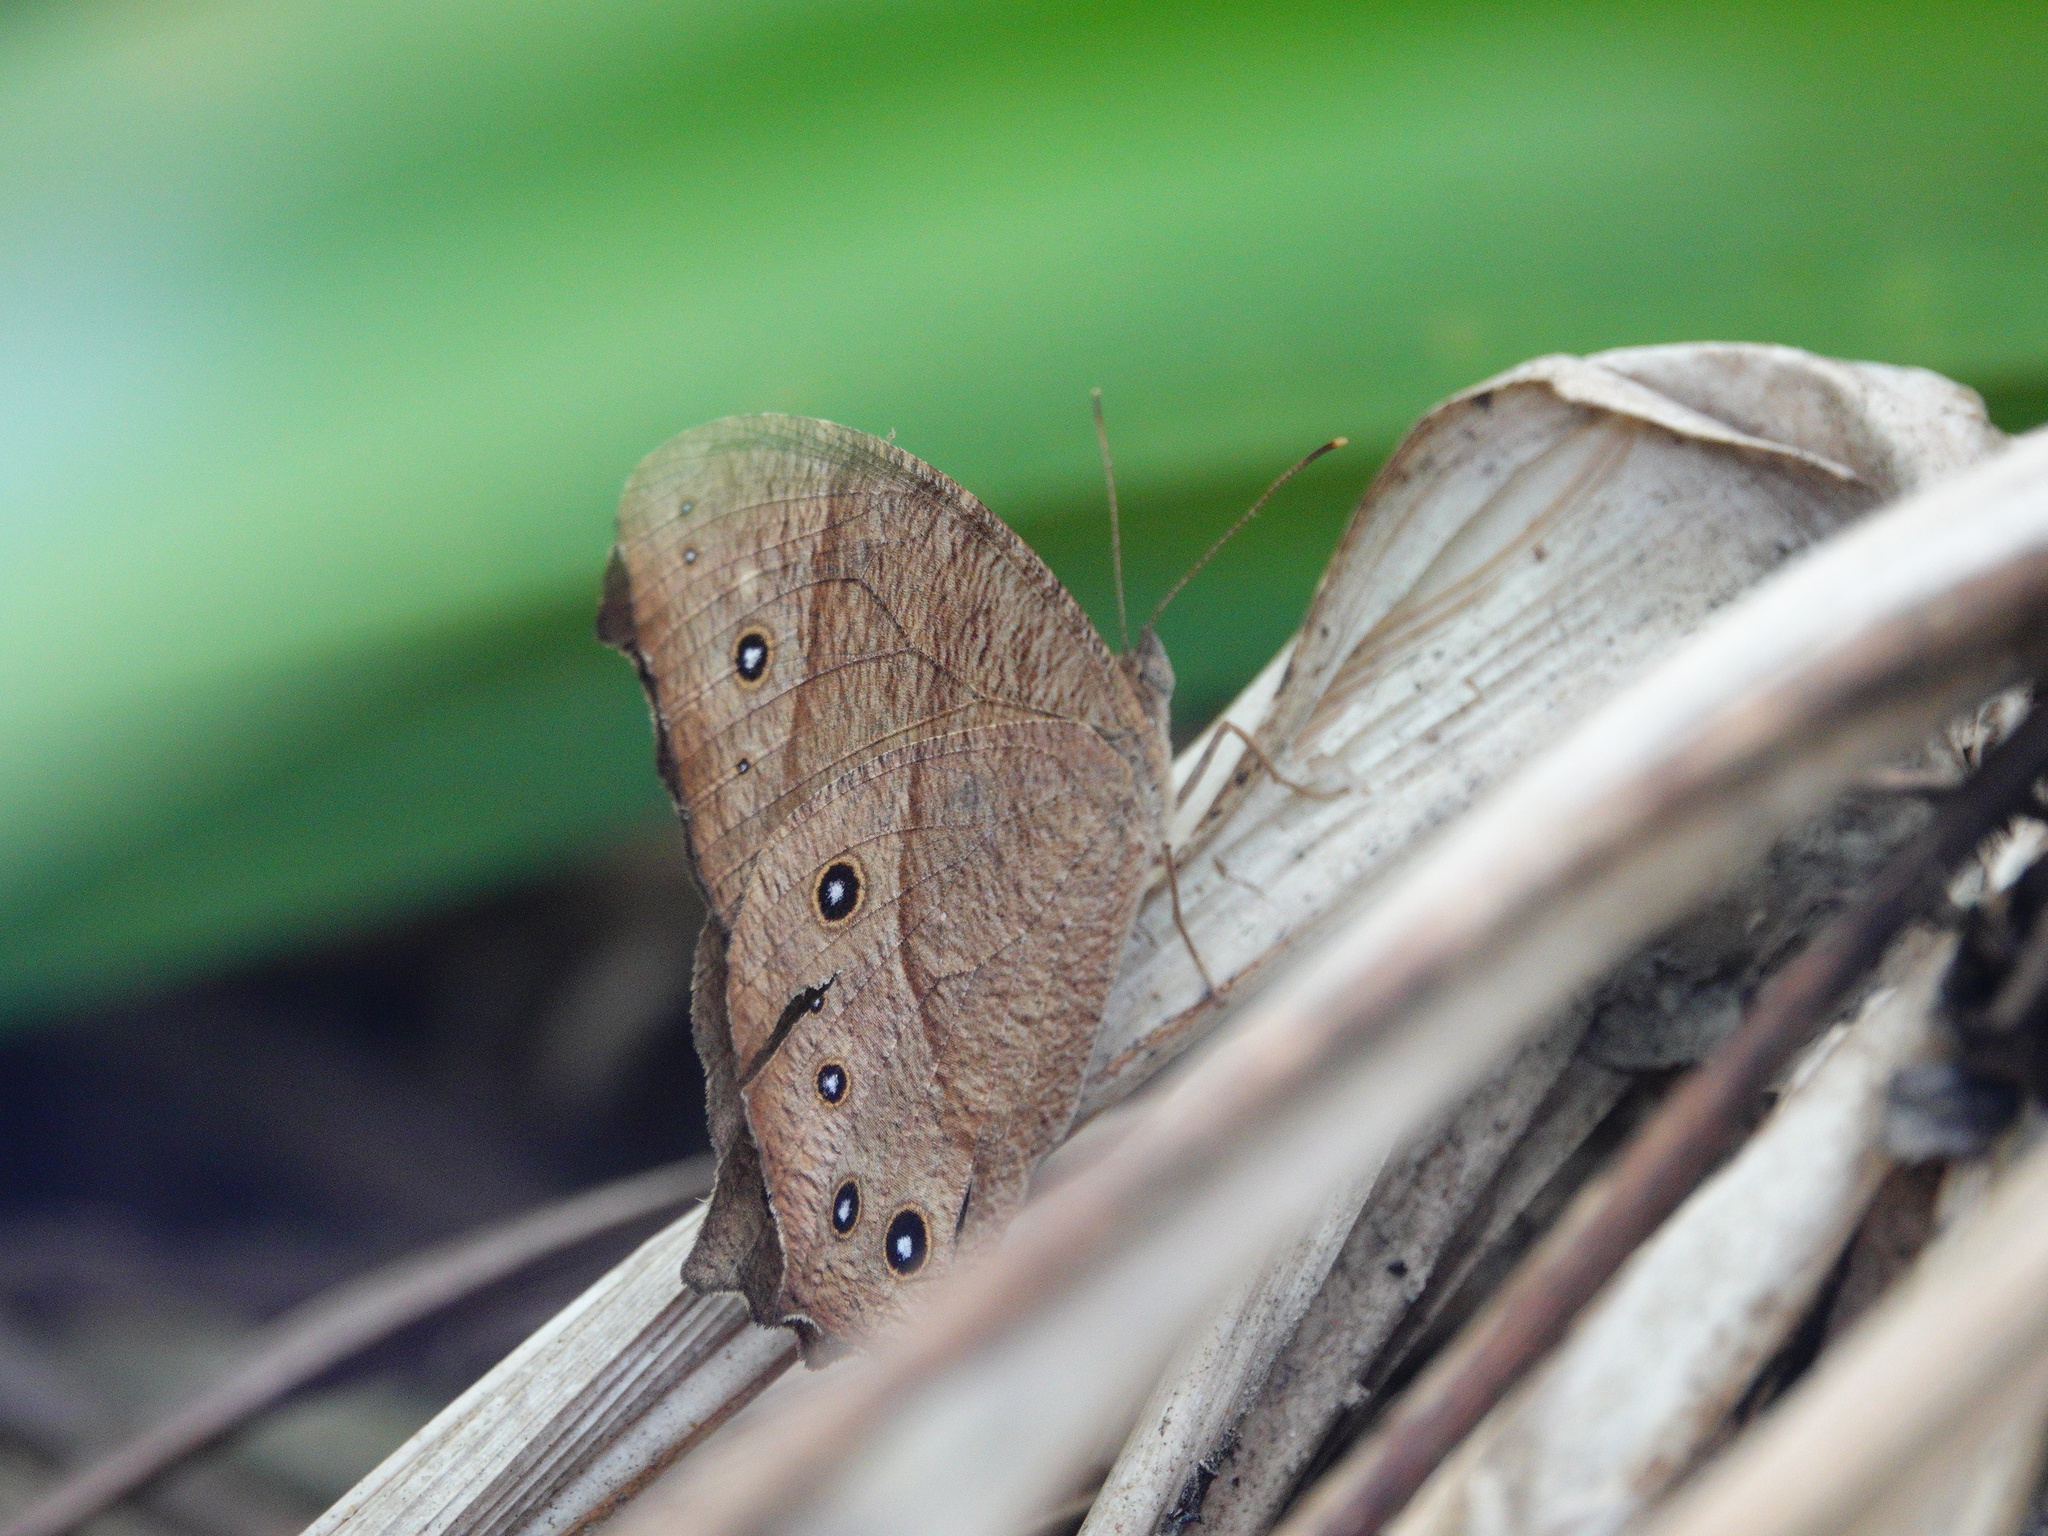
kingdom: Animalia
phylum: Arthropoda
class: Insecta
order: Lepidoptera
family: Nymphalidae
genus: Melanitis
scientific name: Melanitis leda
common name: Twilight brown
